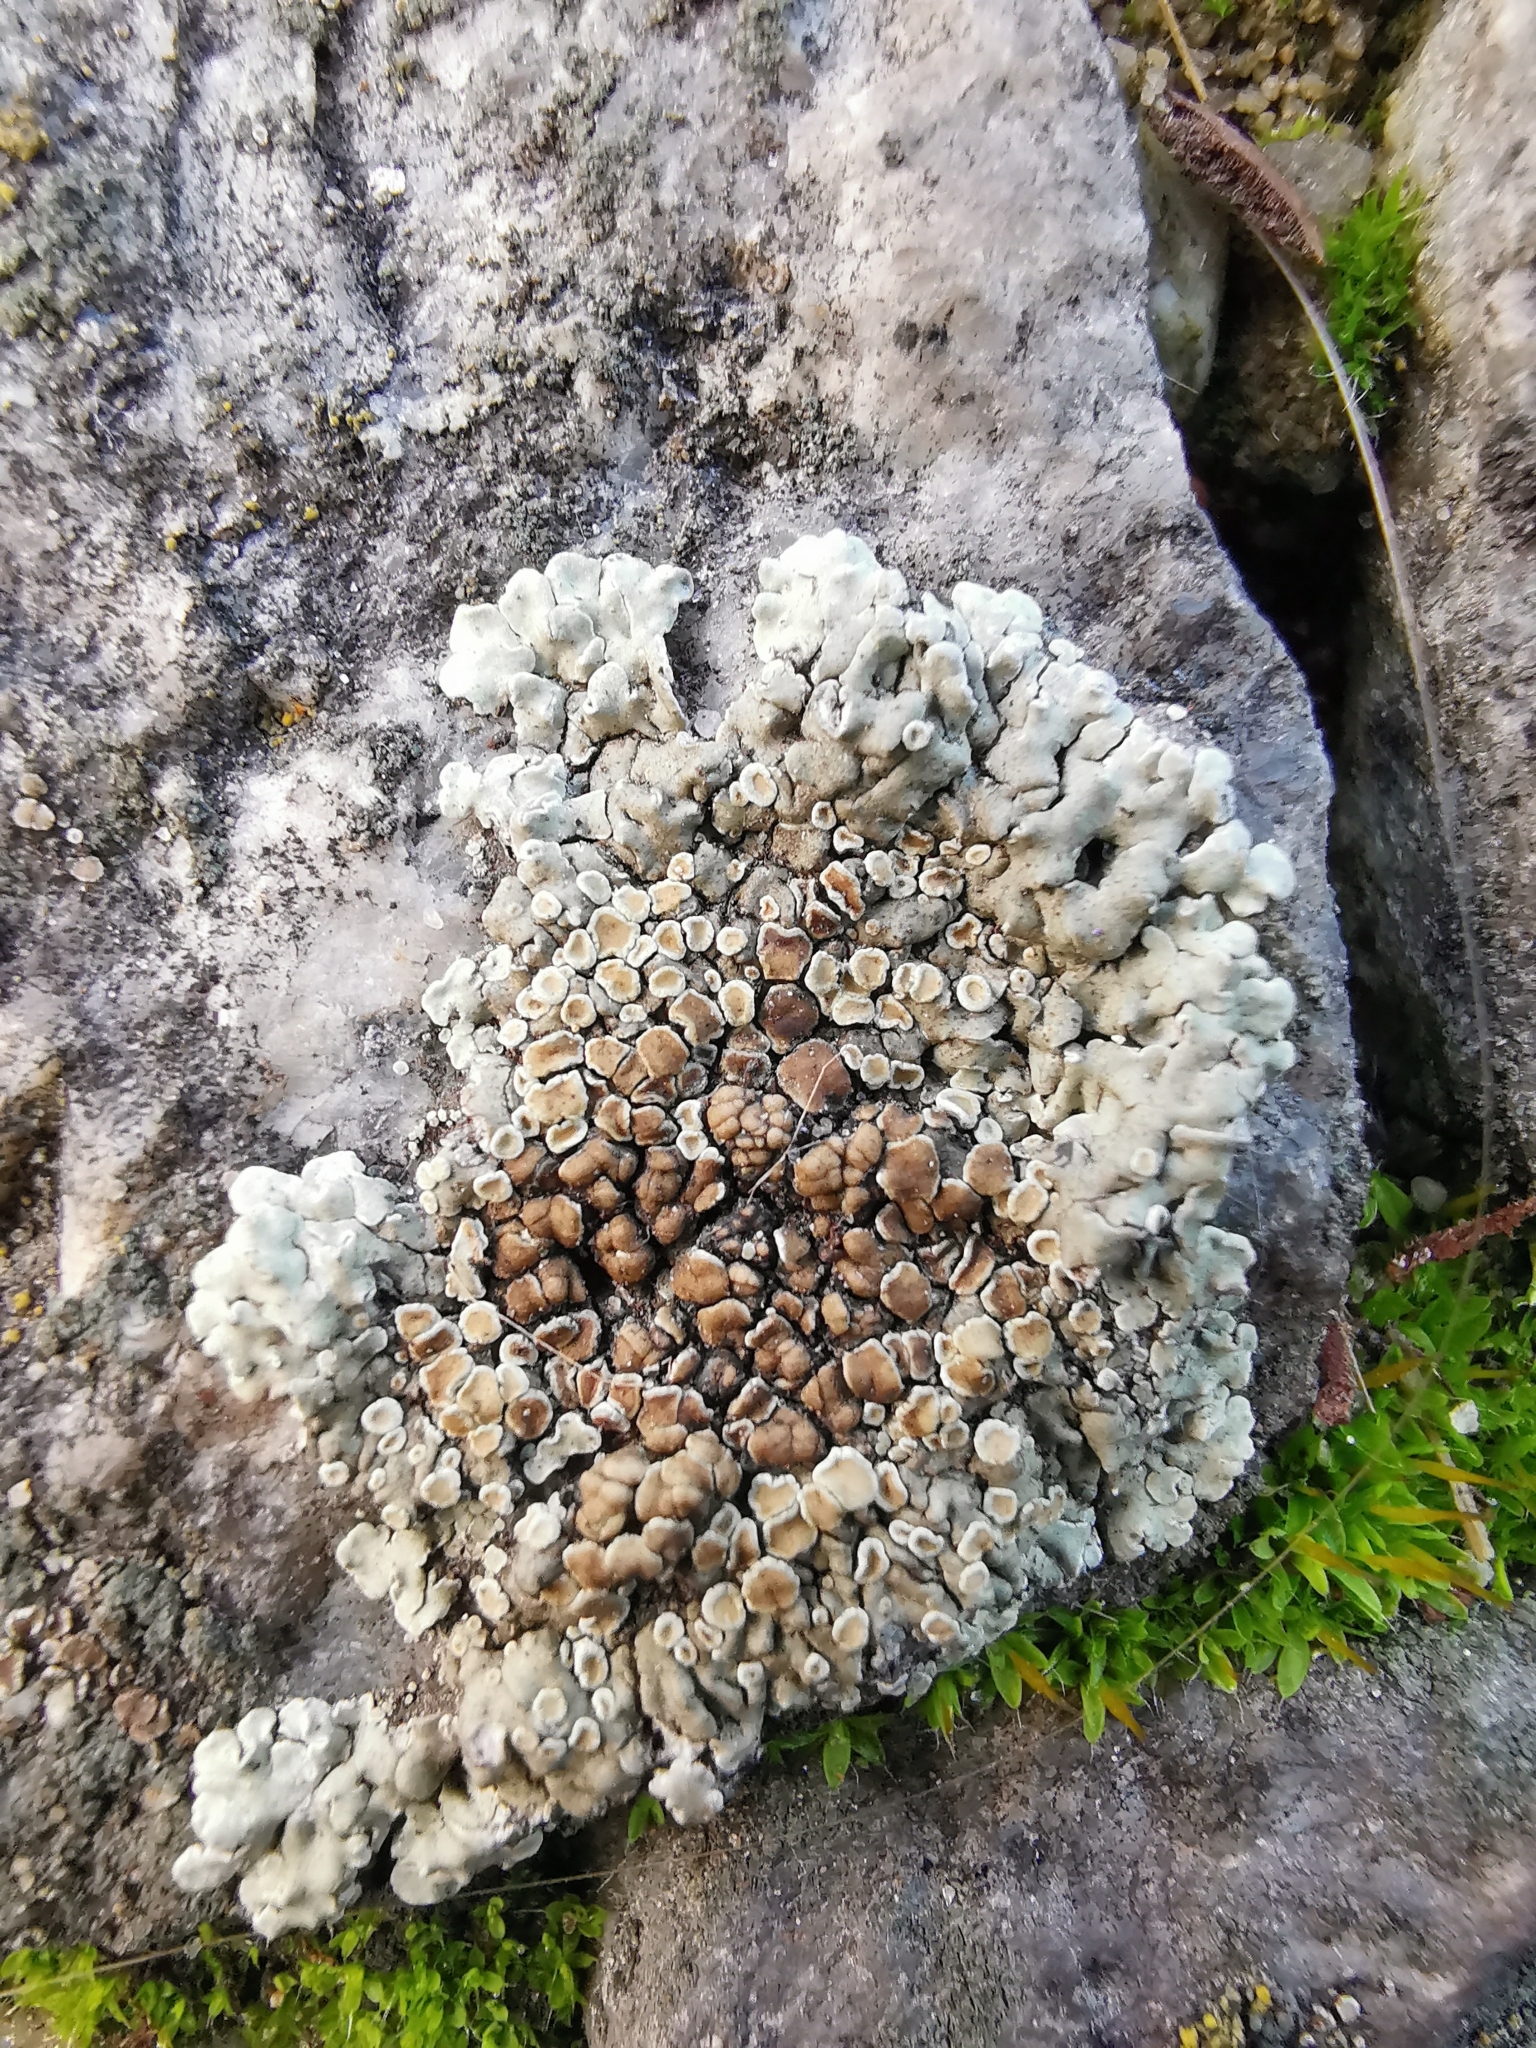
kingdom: Fungi
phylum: Ascomycota
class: Lecanoromycetes
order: Lecanorales
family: Lecanoraceae
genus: Protoparmeliopsis
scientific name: Protoparmeliopsis muralis
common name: Stonewall rim lichen
